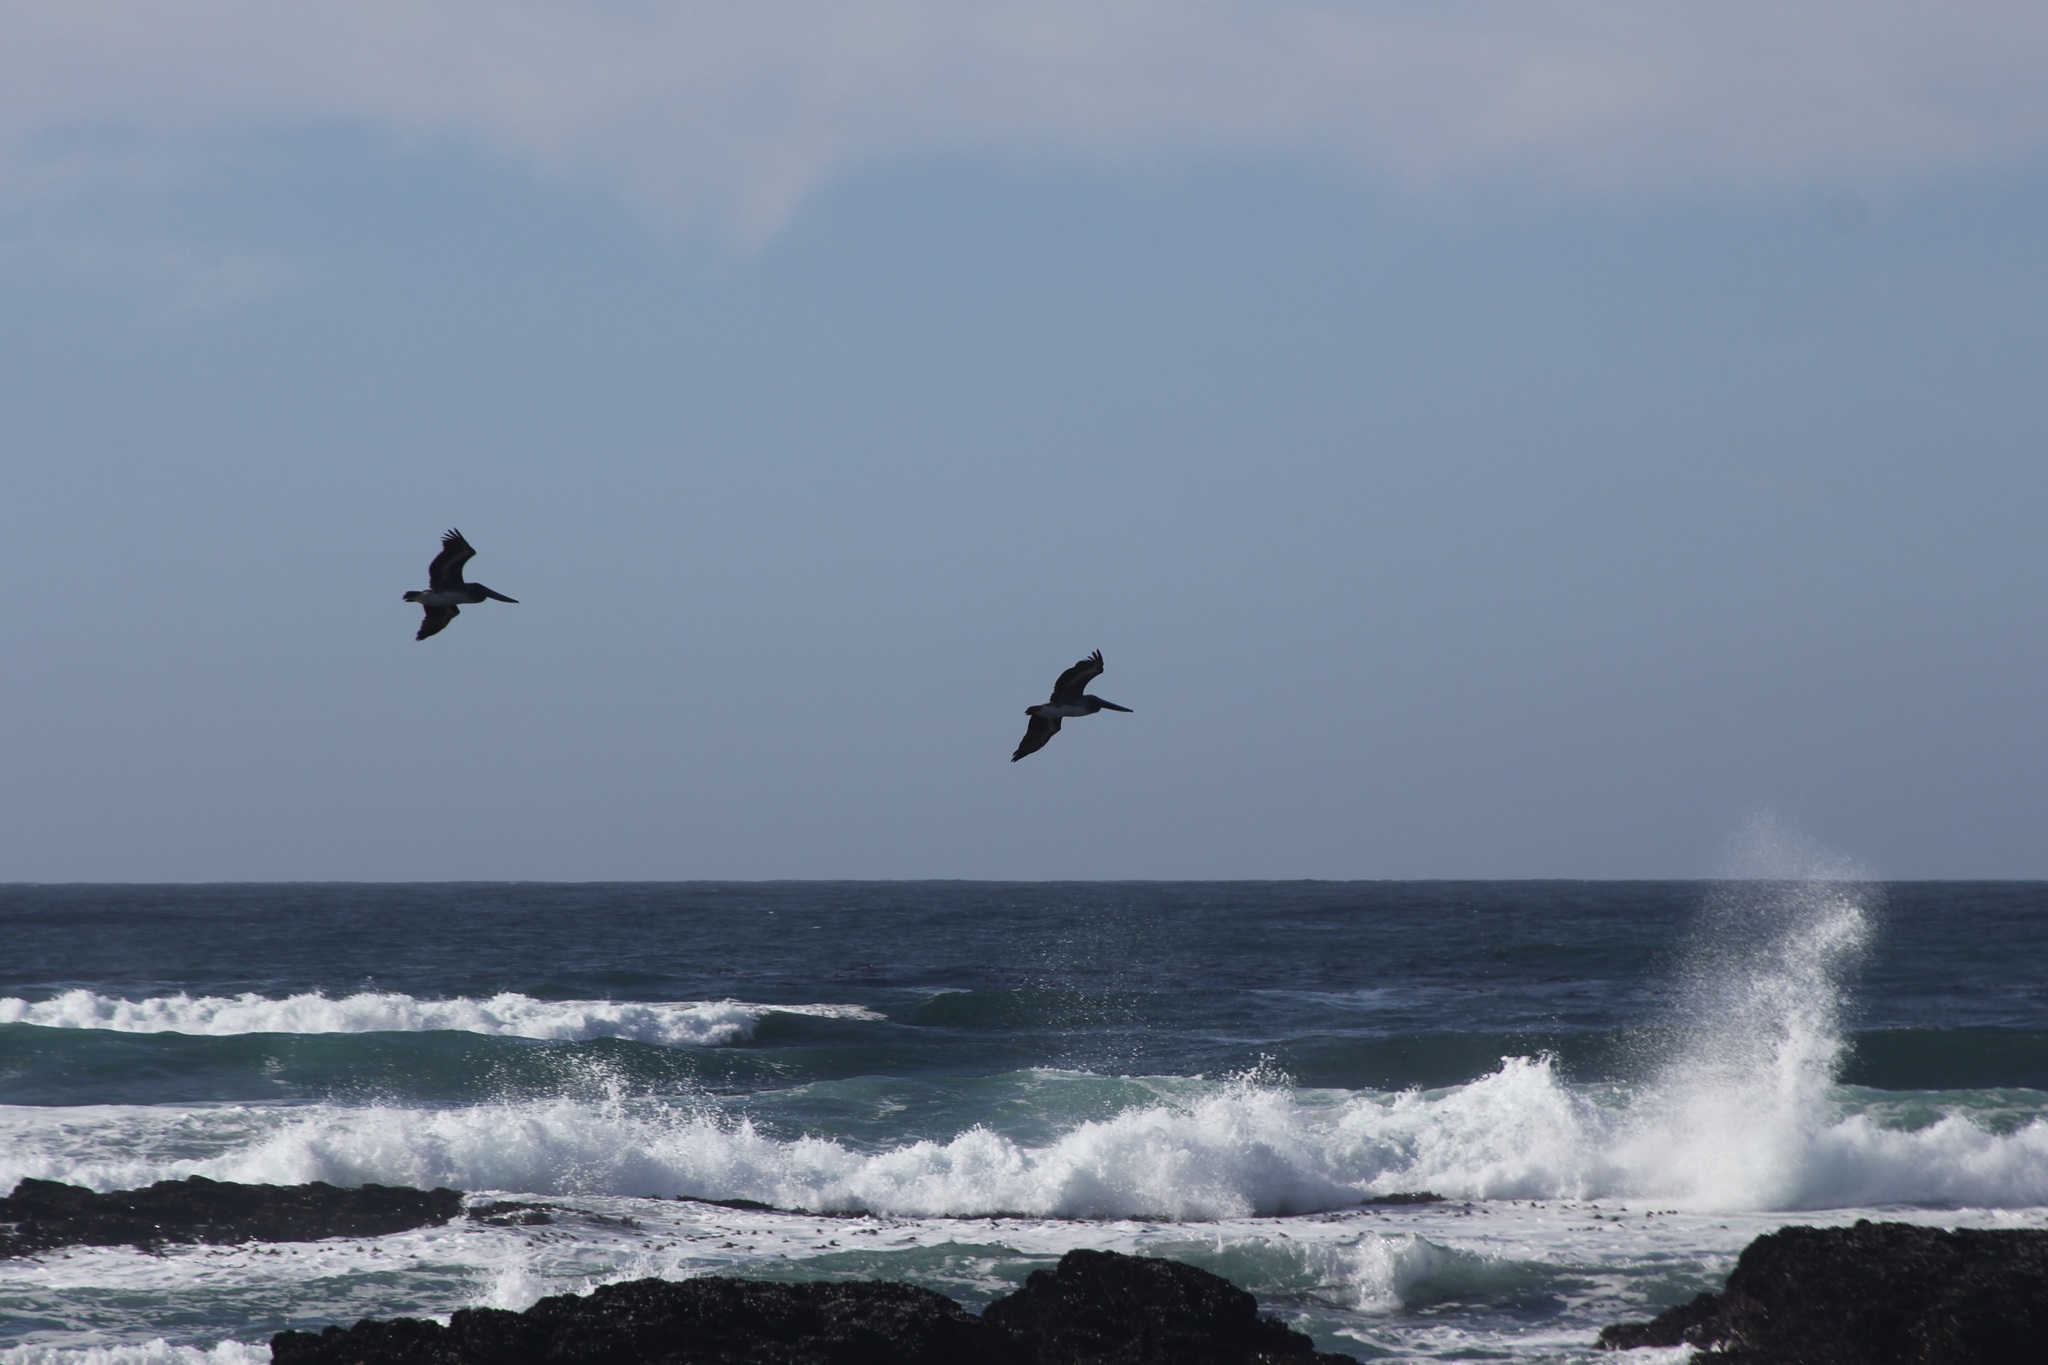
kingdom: Animalia
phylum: Chordata
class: Aves
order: Pelecaniformes
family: Pelecanidae
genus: Pelecanus
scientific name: Pelecanus occidentalis
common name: Brown pelican
